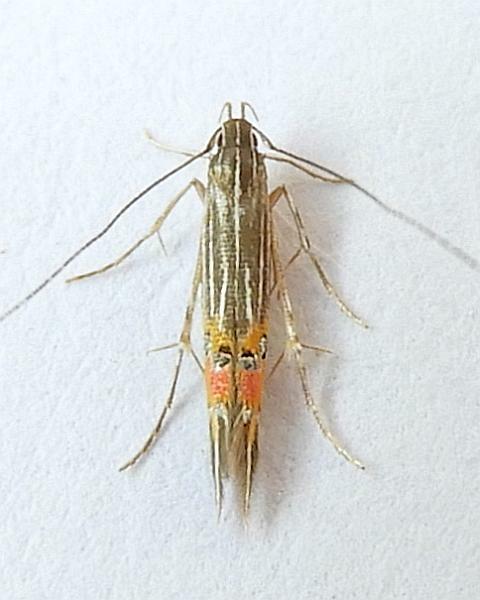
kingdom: Animalia
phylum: Arthropoda
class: Insecta
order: Lepidoptera
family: Cosmopterigidae
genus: Cosmopterix
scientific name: Cosmopterix
